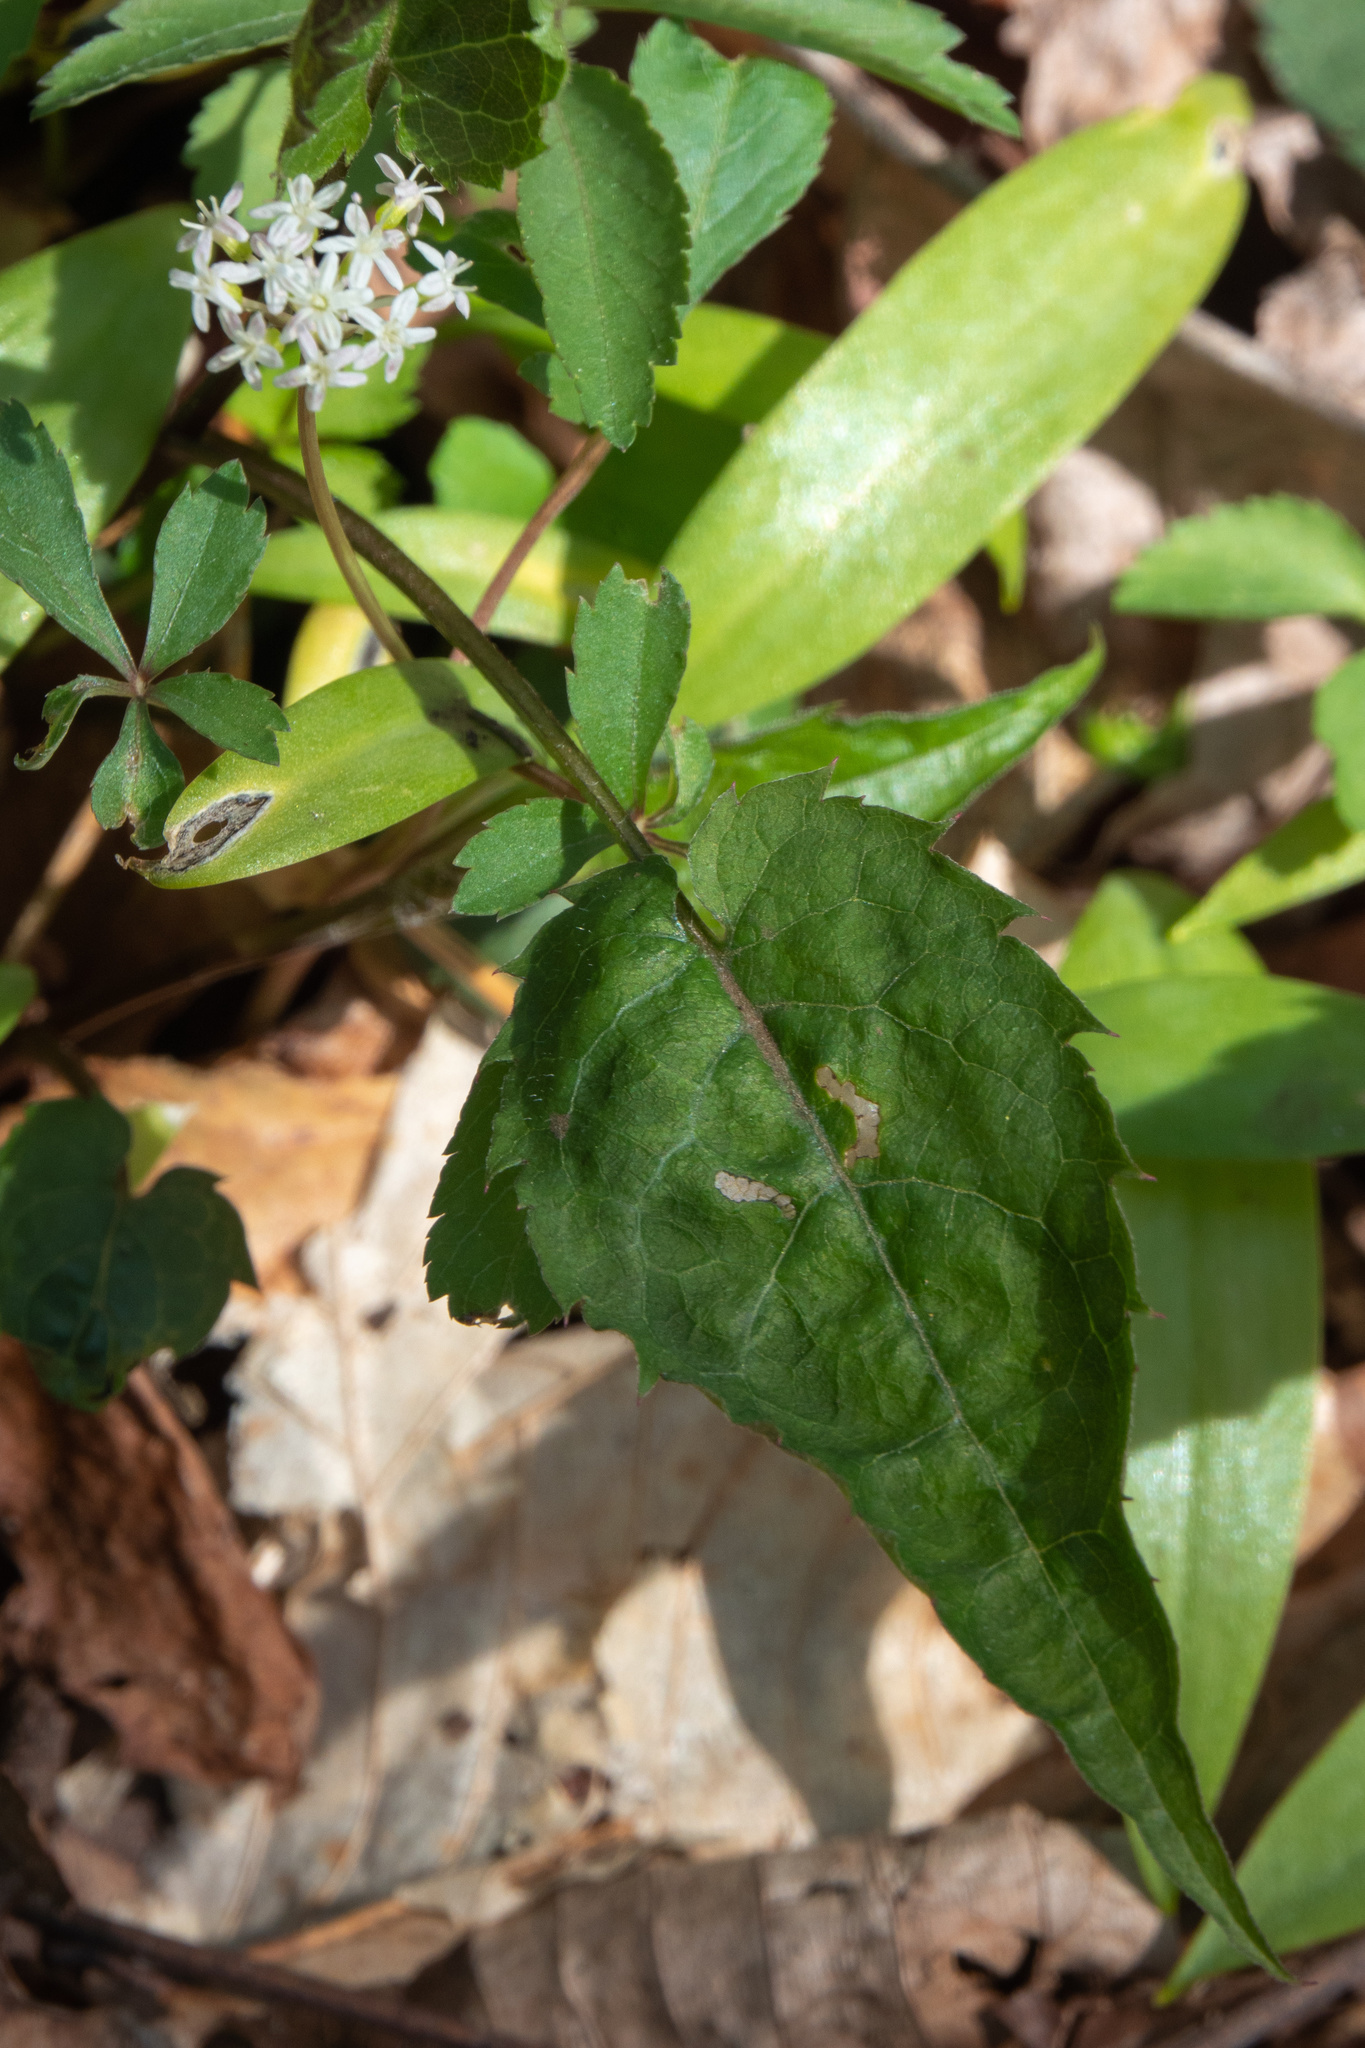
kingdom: Plantae
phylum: Tracheophyta
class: Magnoliopsida
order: Apiales
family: Araliaceae
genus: Panax
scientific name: Panax trifolius
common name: Dwarf ginseng
